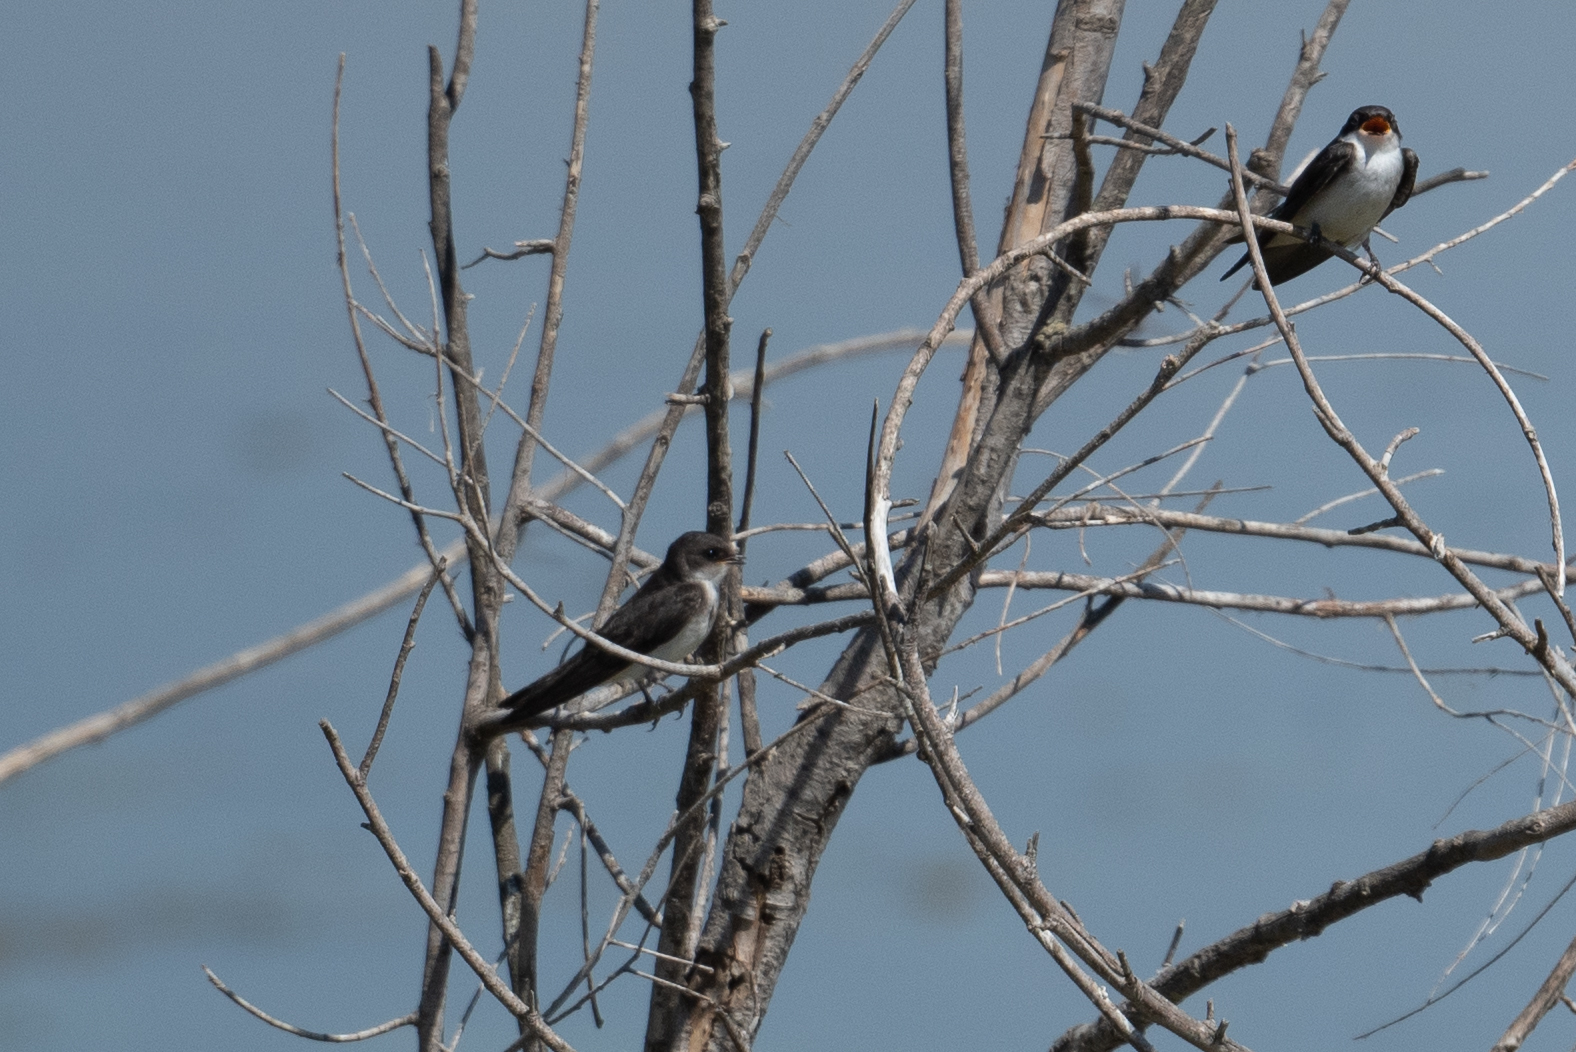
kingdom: Animalia
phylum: Chordata
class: Aves
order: Passeriformes
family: Hirundinidae
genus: Tachycineta
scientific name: Tachycineta bicolor
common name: Tree swallow
